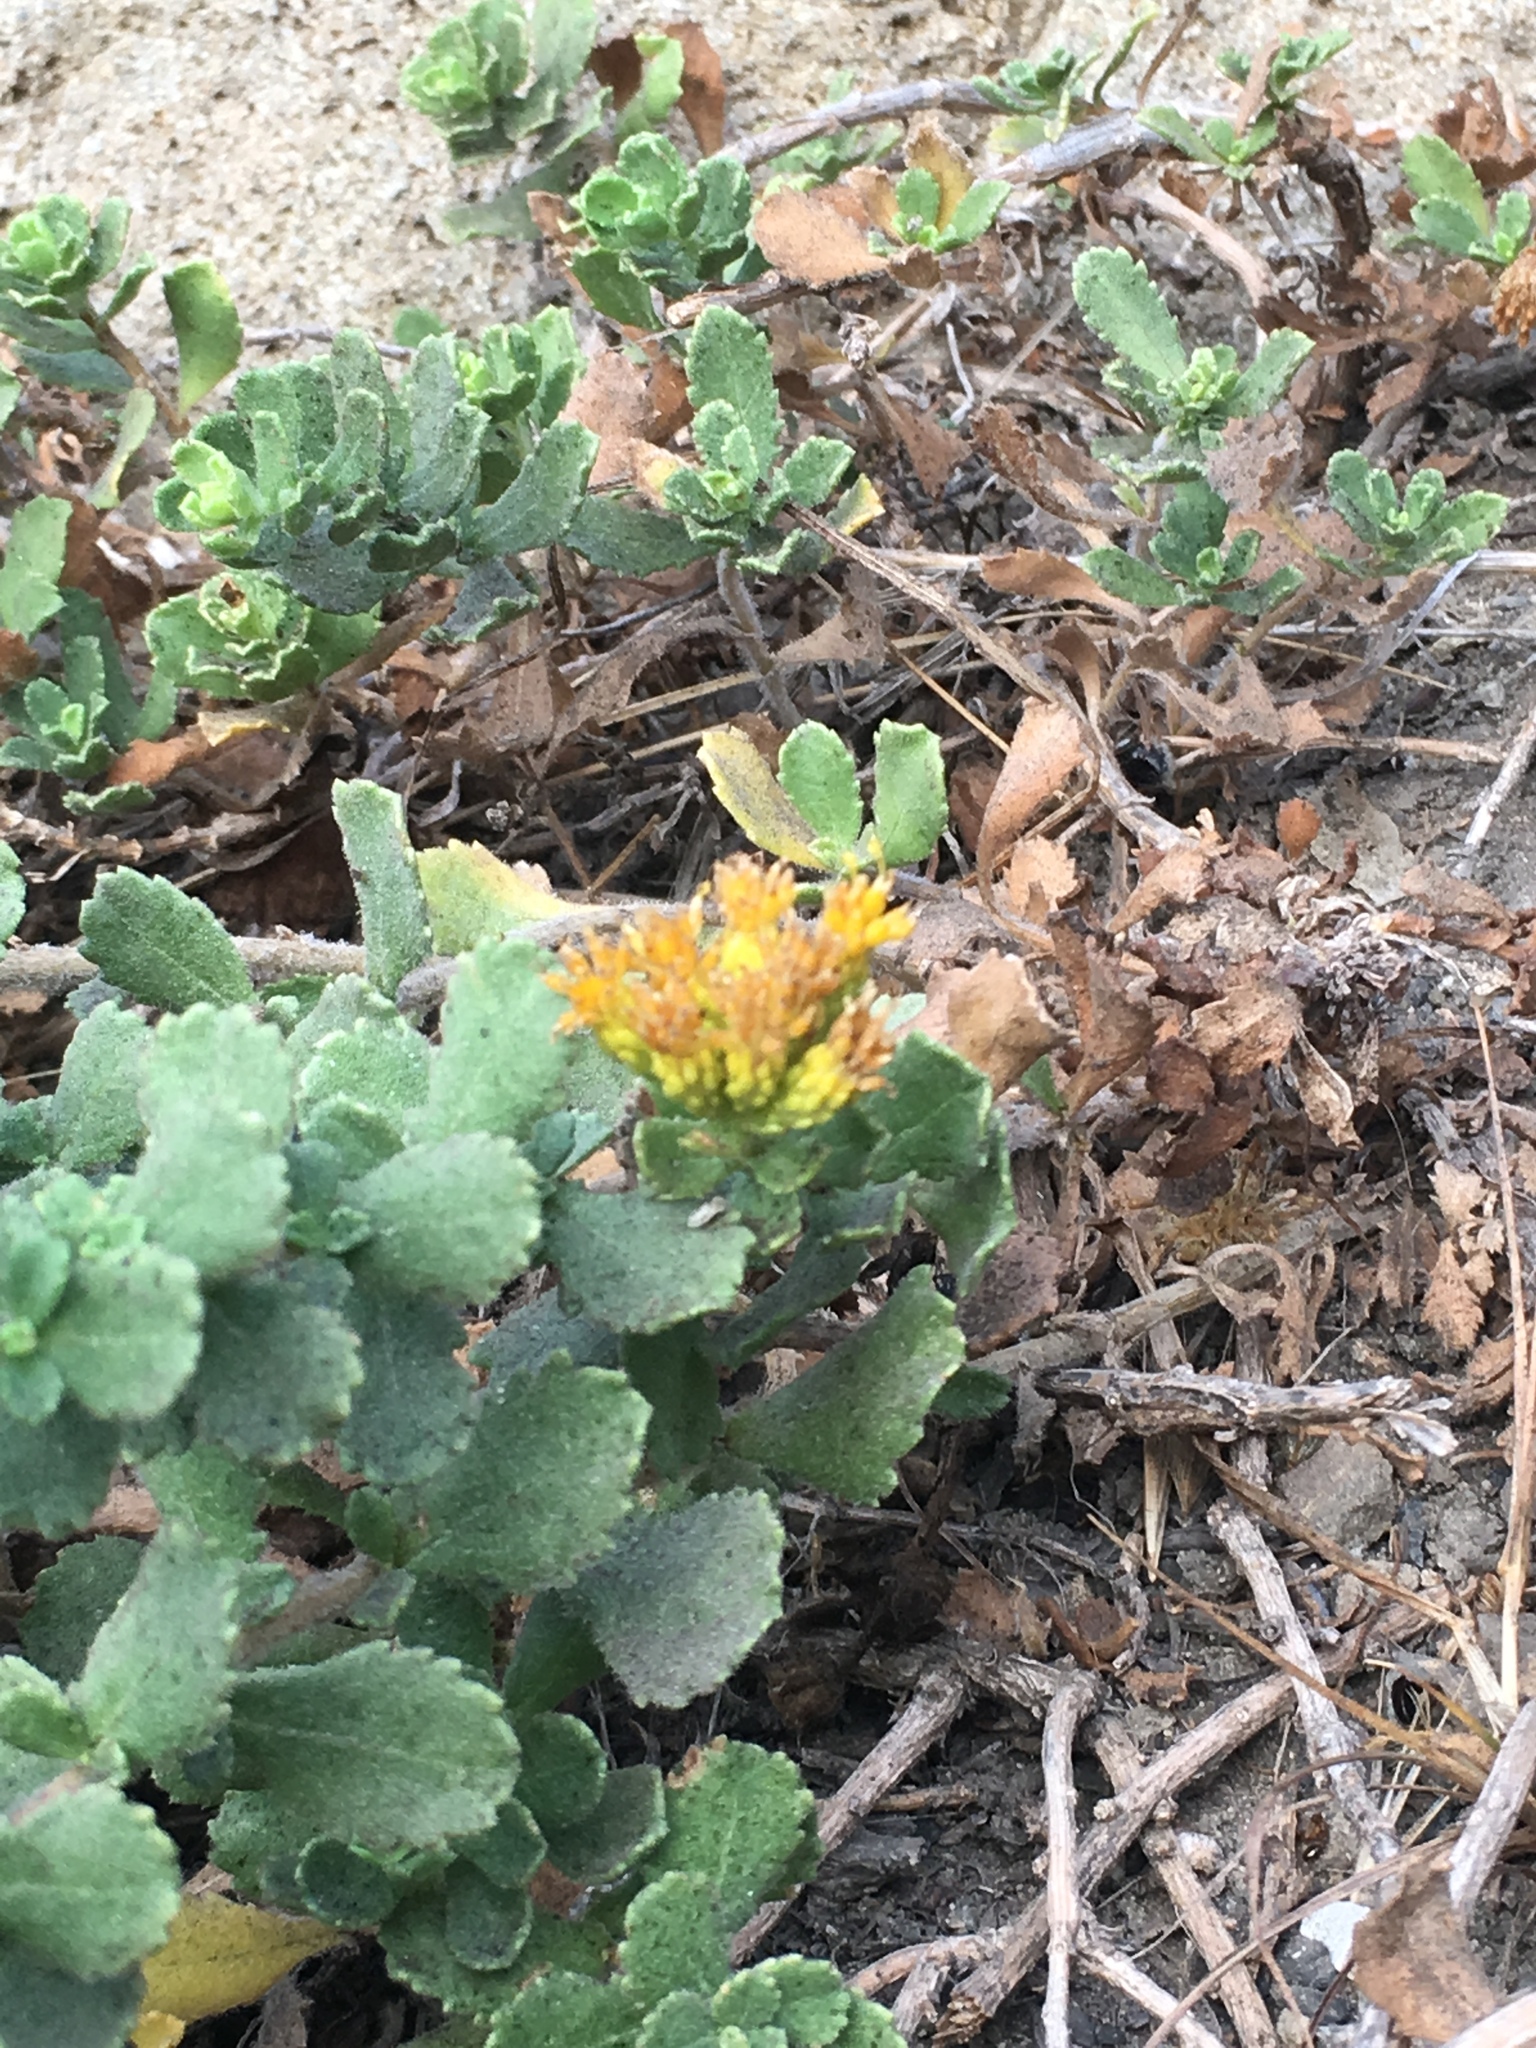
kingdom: Plantae
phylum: Tracheophyta
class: Magnoliopsida
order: Asterales
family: Asteraceae
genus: Isocoma
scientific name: Isocoma menziesii
